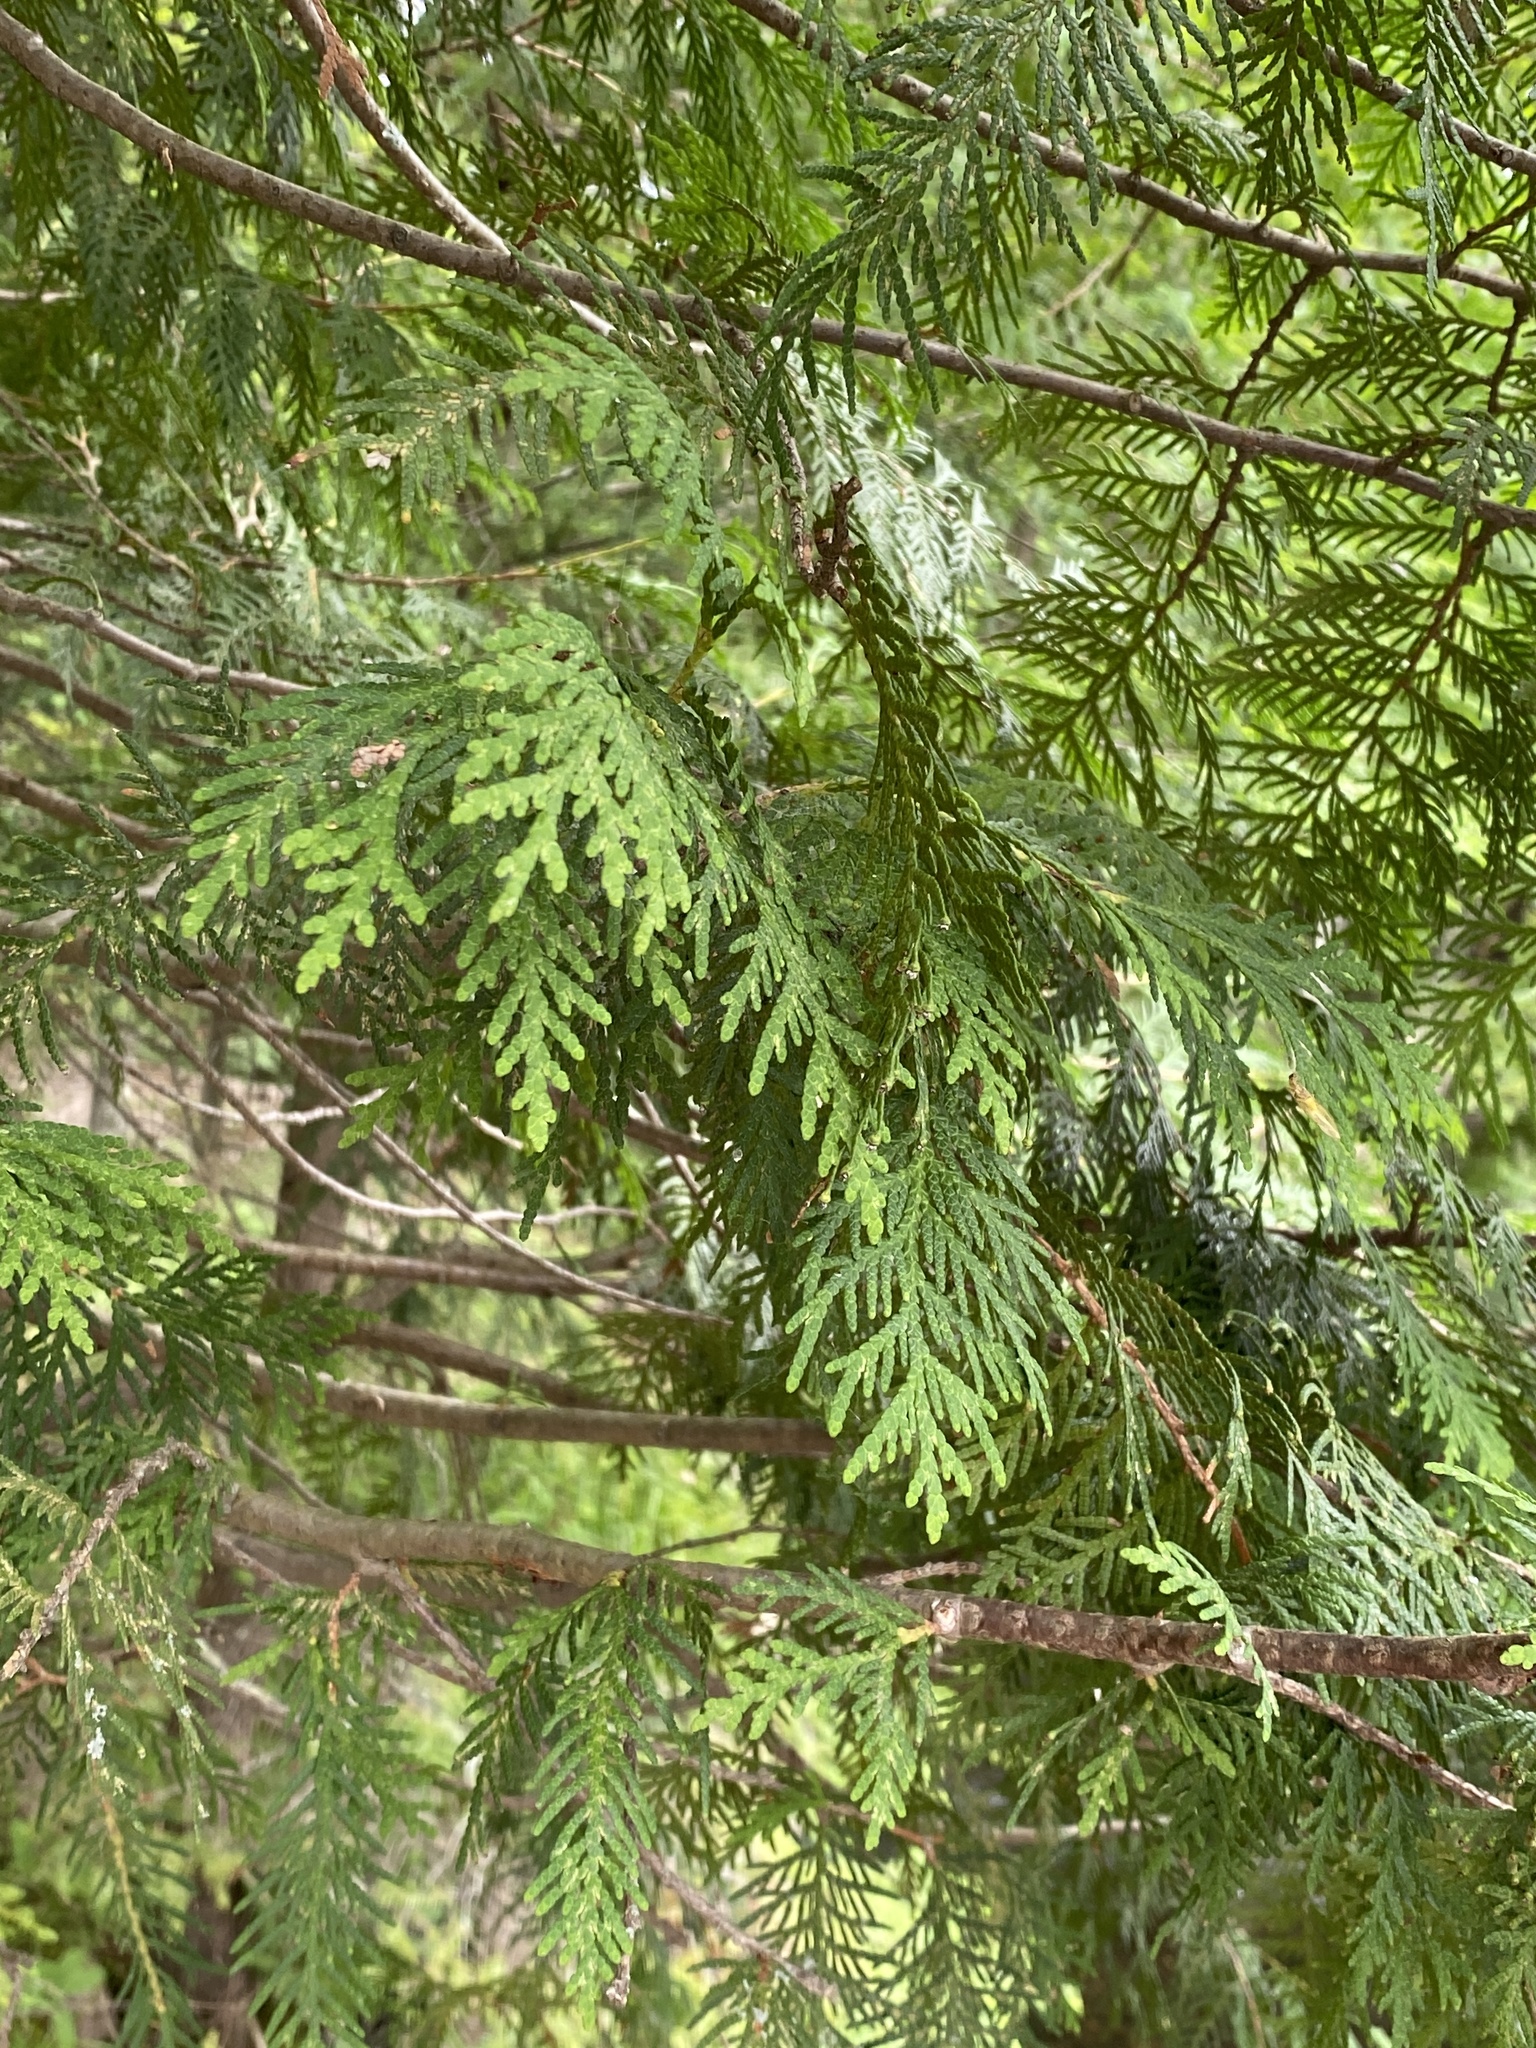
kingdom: Plantae
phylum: Tracheophyta
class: Pinopsida
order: Pinales
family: Cupressaceae
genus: Thuja
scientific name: Thuja occidentalis
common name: Northern white-cedar
